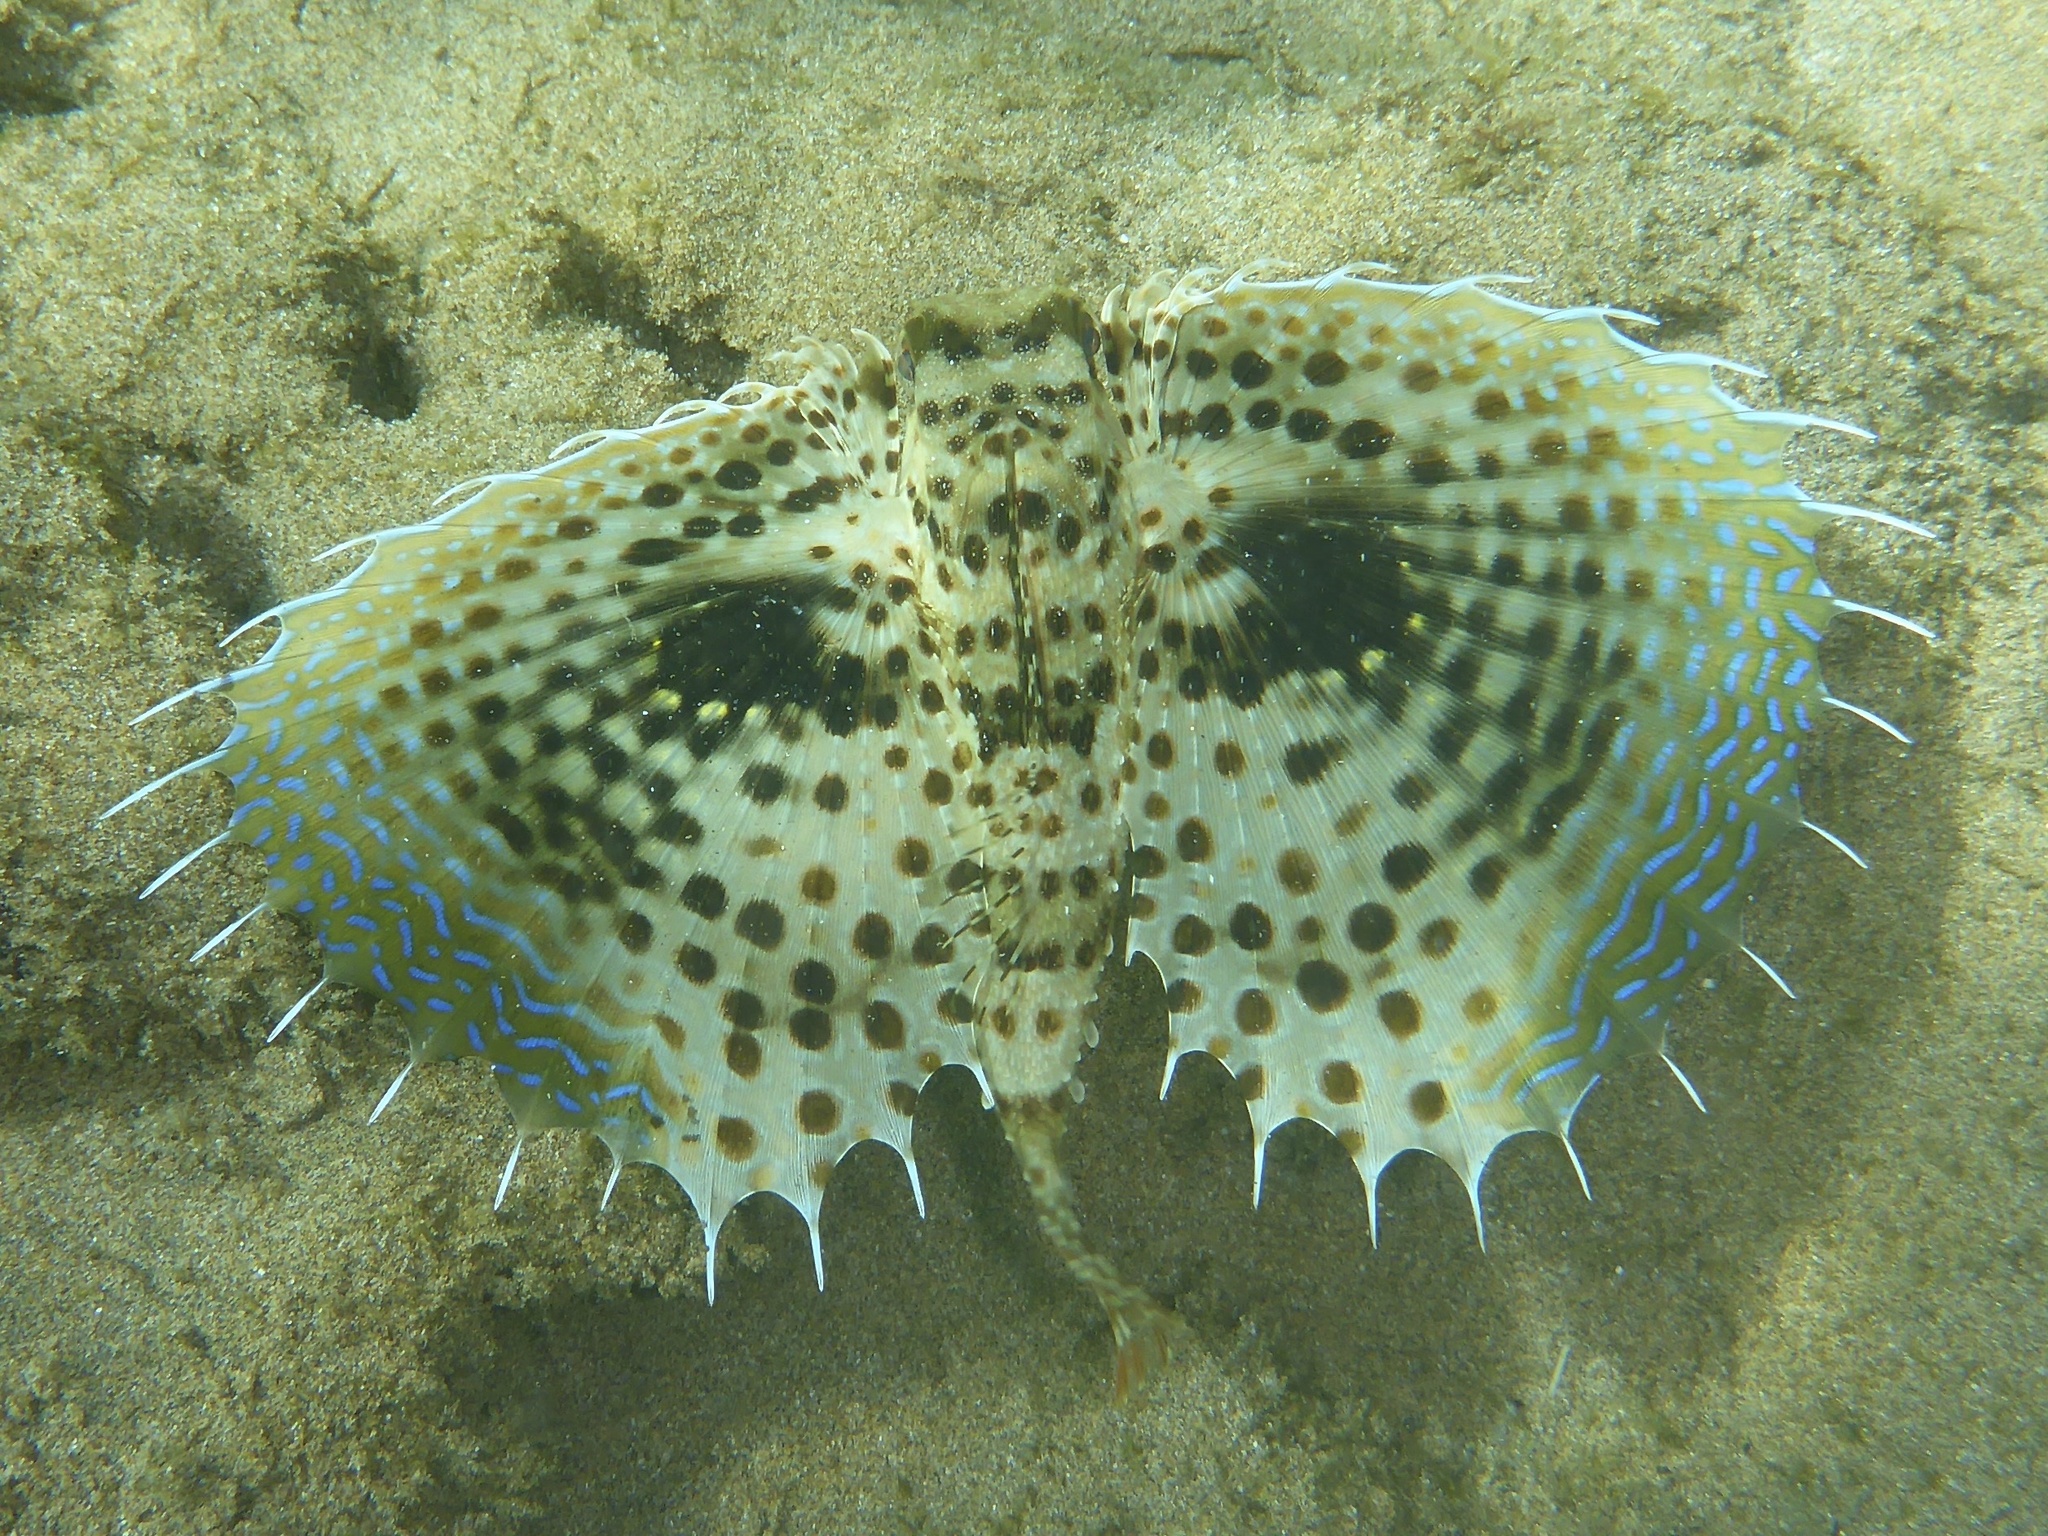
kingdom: Animalia
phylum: Chordata
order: Scorpaeniformes
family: Dactylopteridae
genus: Dactyloptena
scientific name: Dactyloptena orientalis
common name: Flying gurnard
